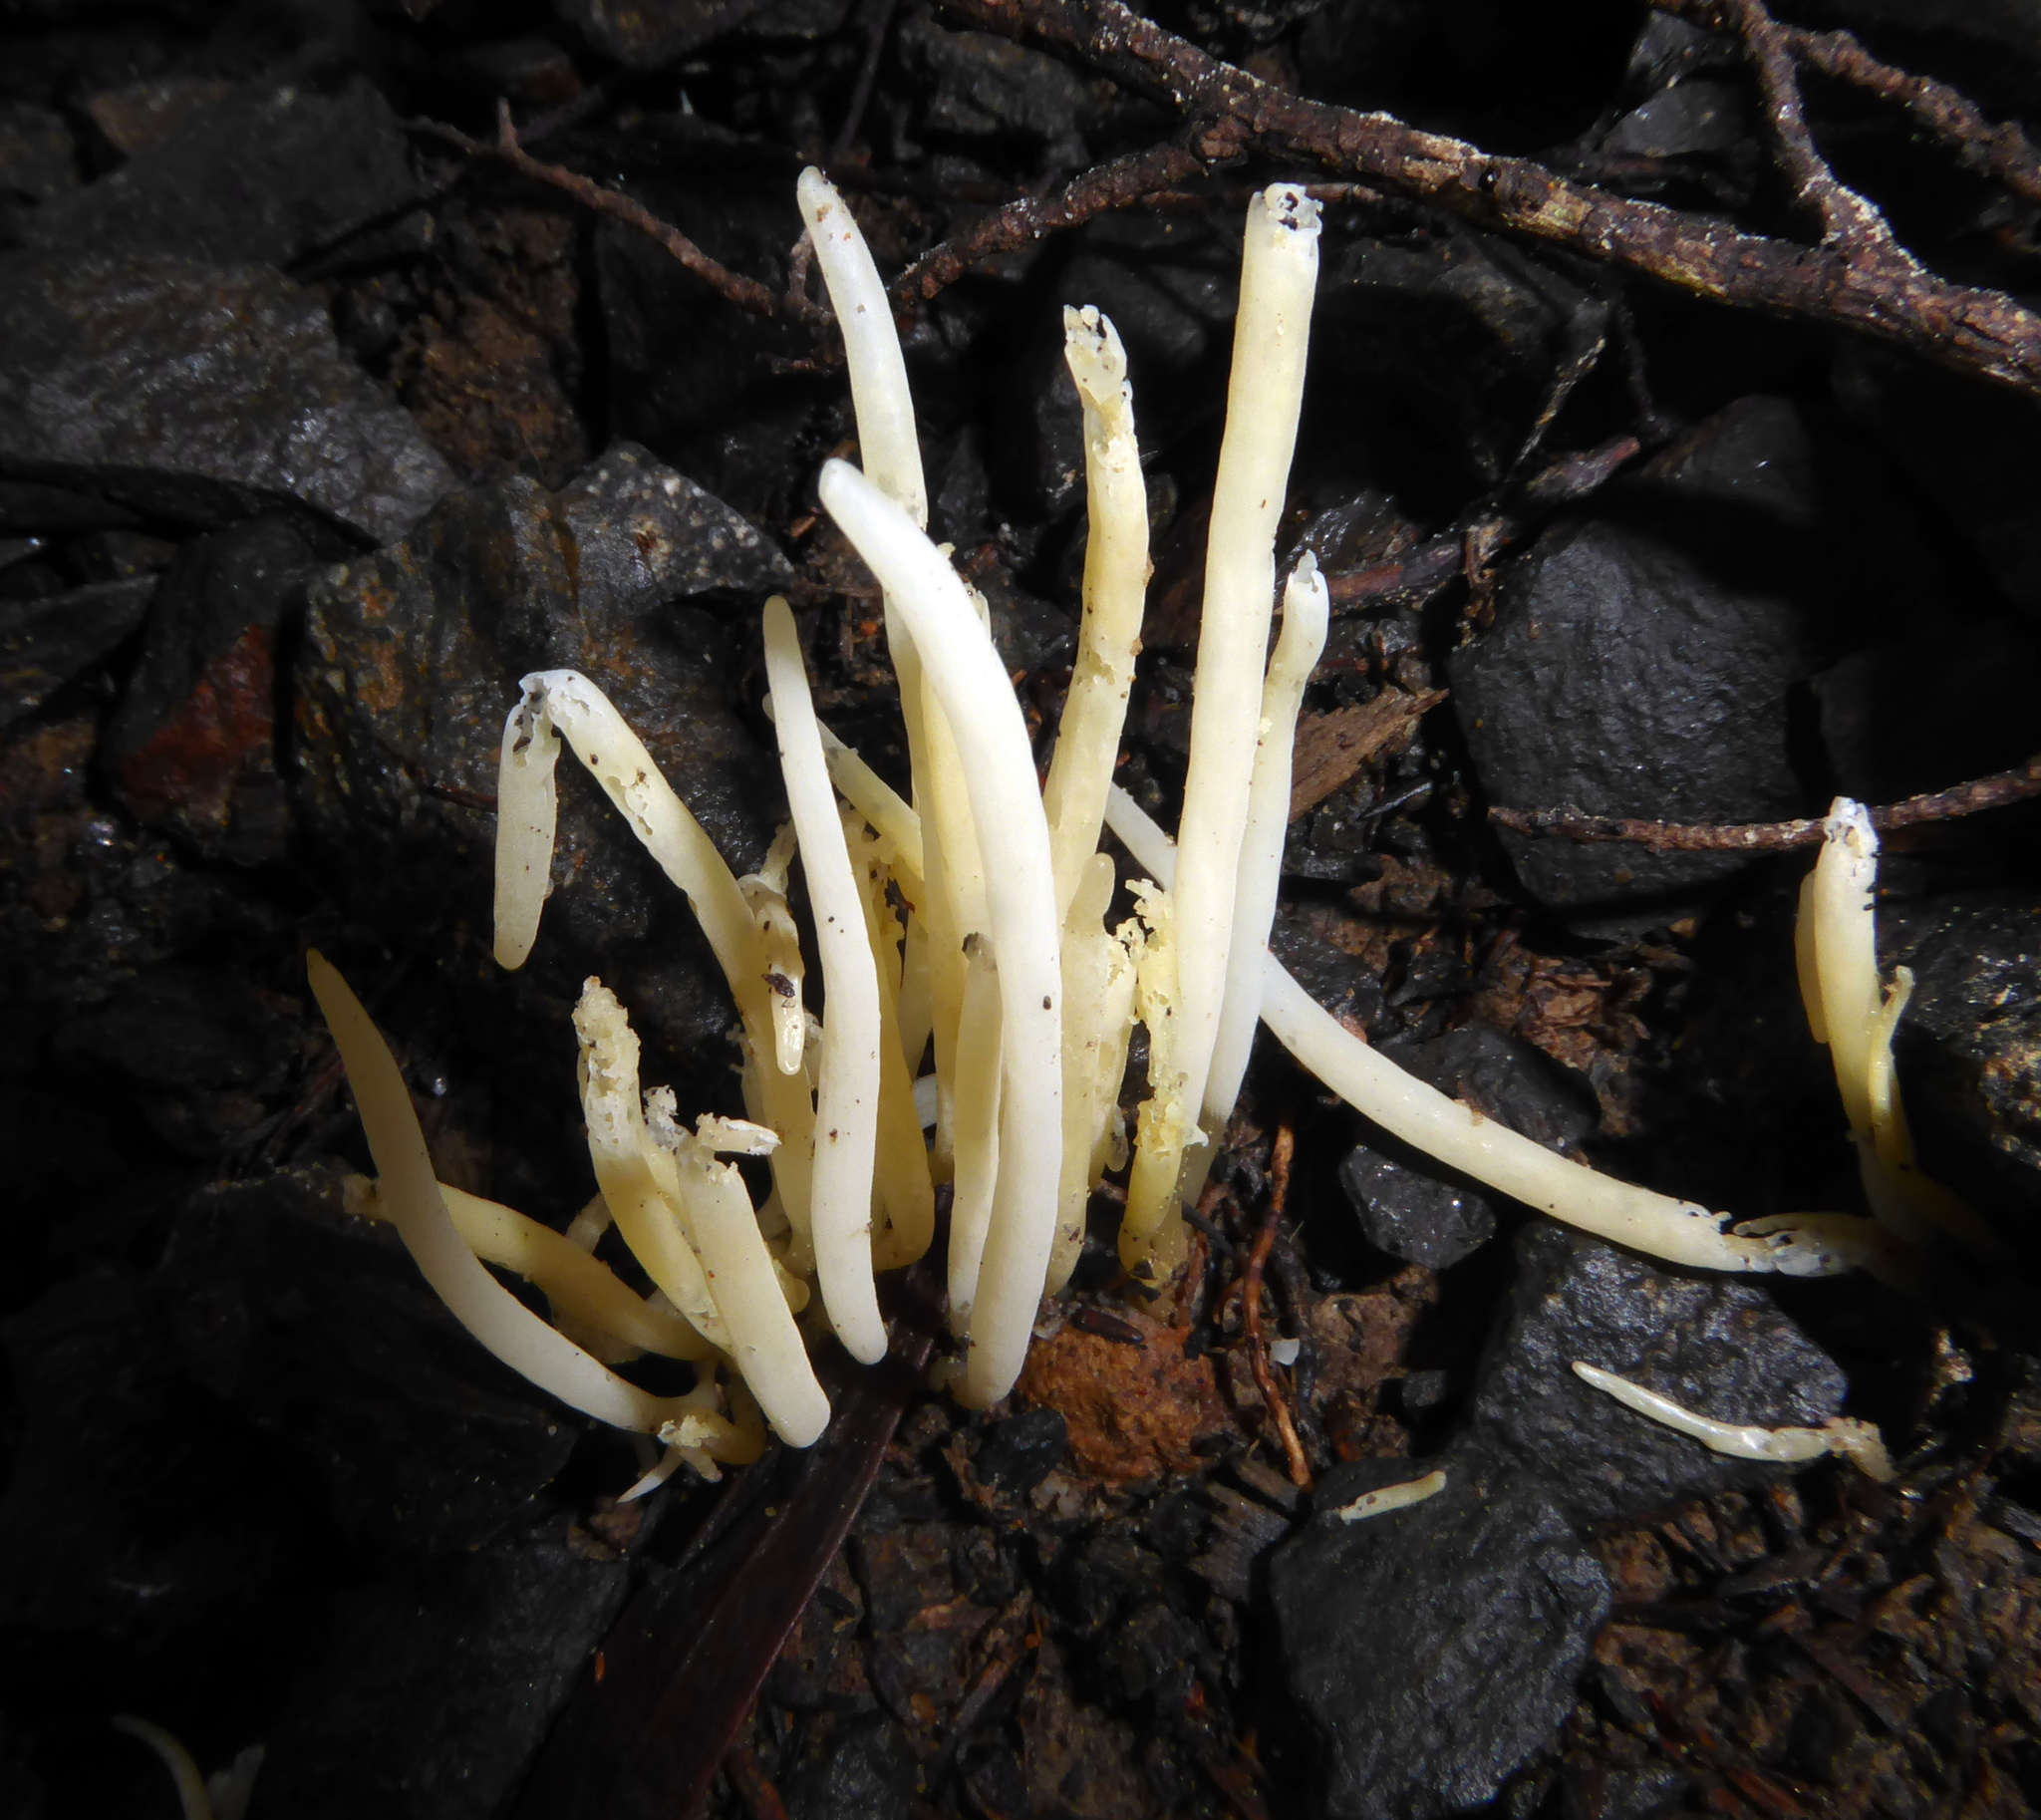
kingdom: Fungi
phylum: Basidiomycota
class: Agaricomycetes
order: Cantharellales
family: Hydnaceae
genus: Clavulina
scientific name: Clavulina subrugosa
